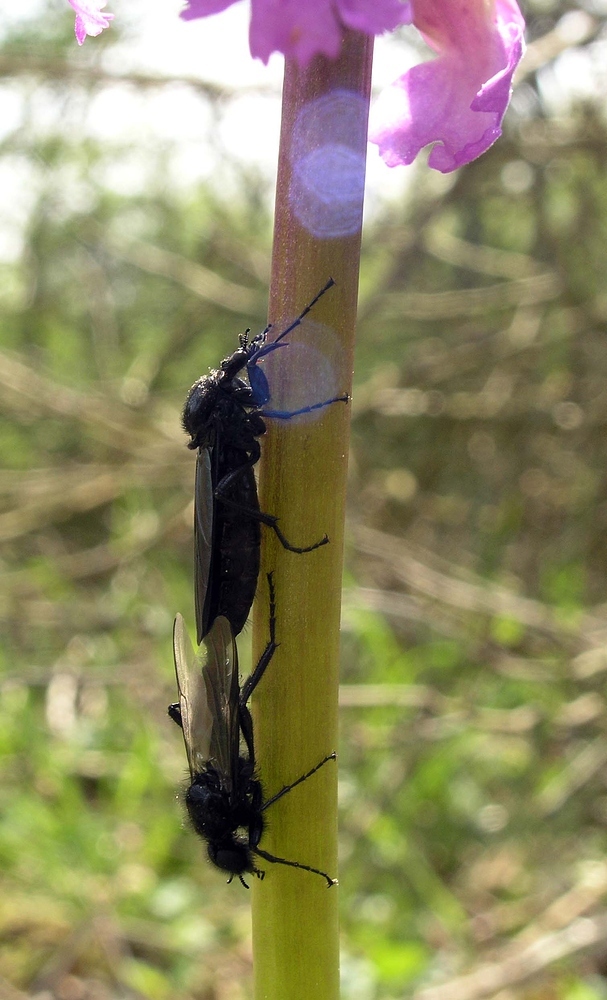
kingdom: Animalia
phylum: Arthropoda
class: Insecta
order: Diptera
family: Bibionidae
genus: Bibio
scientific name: Bibio marci
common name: St marks fly
